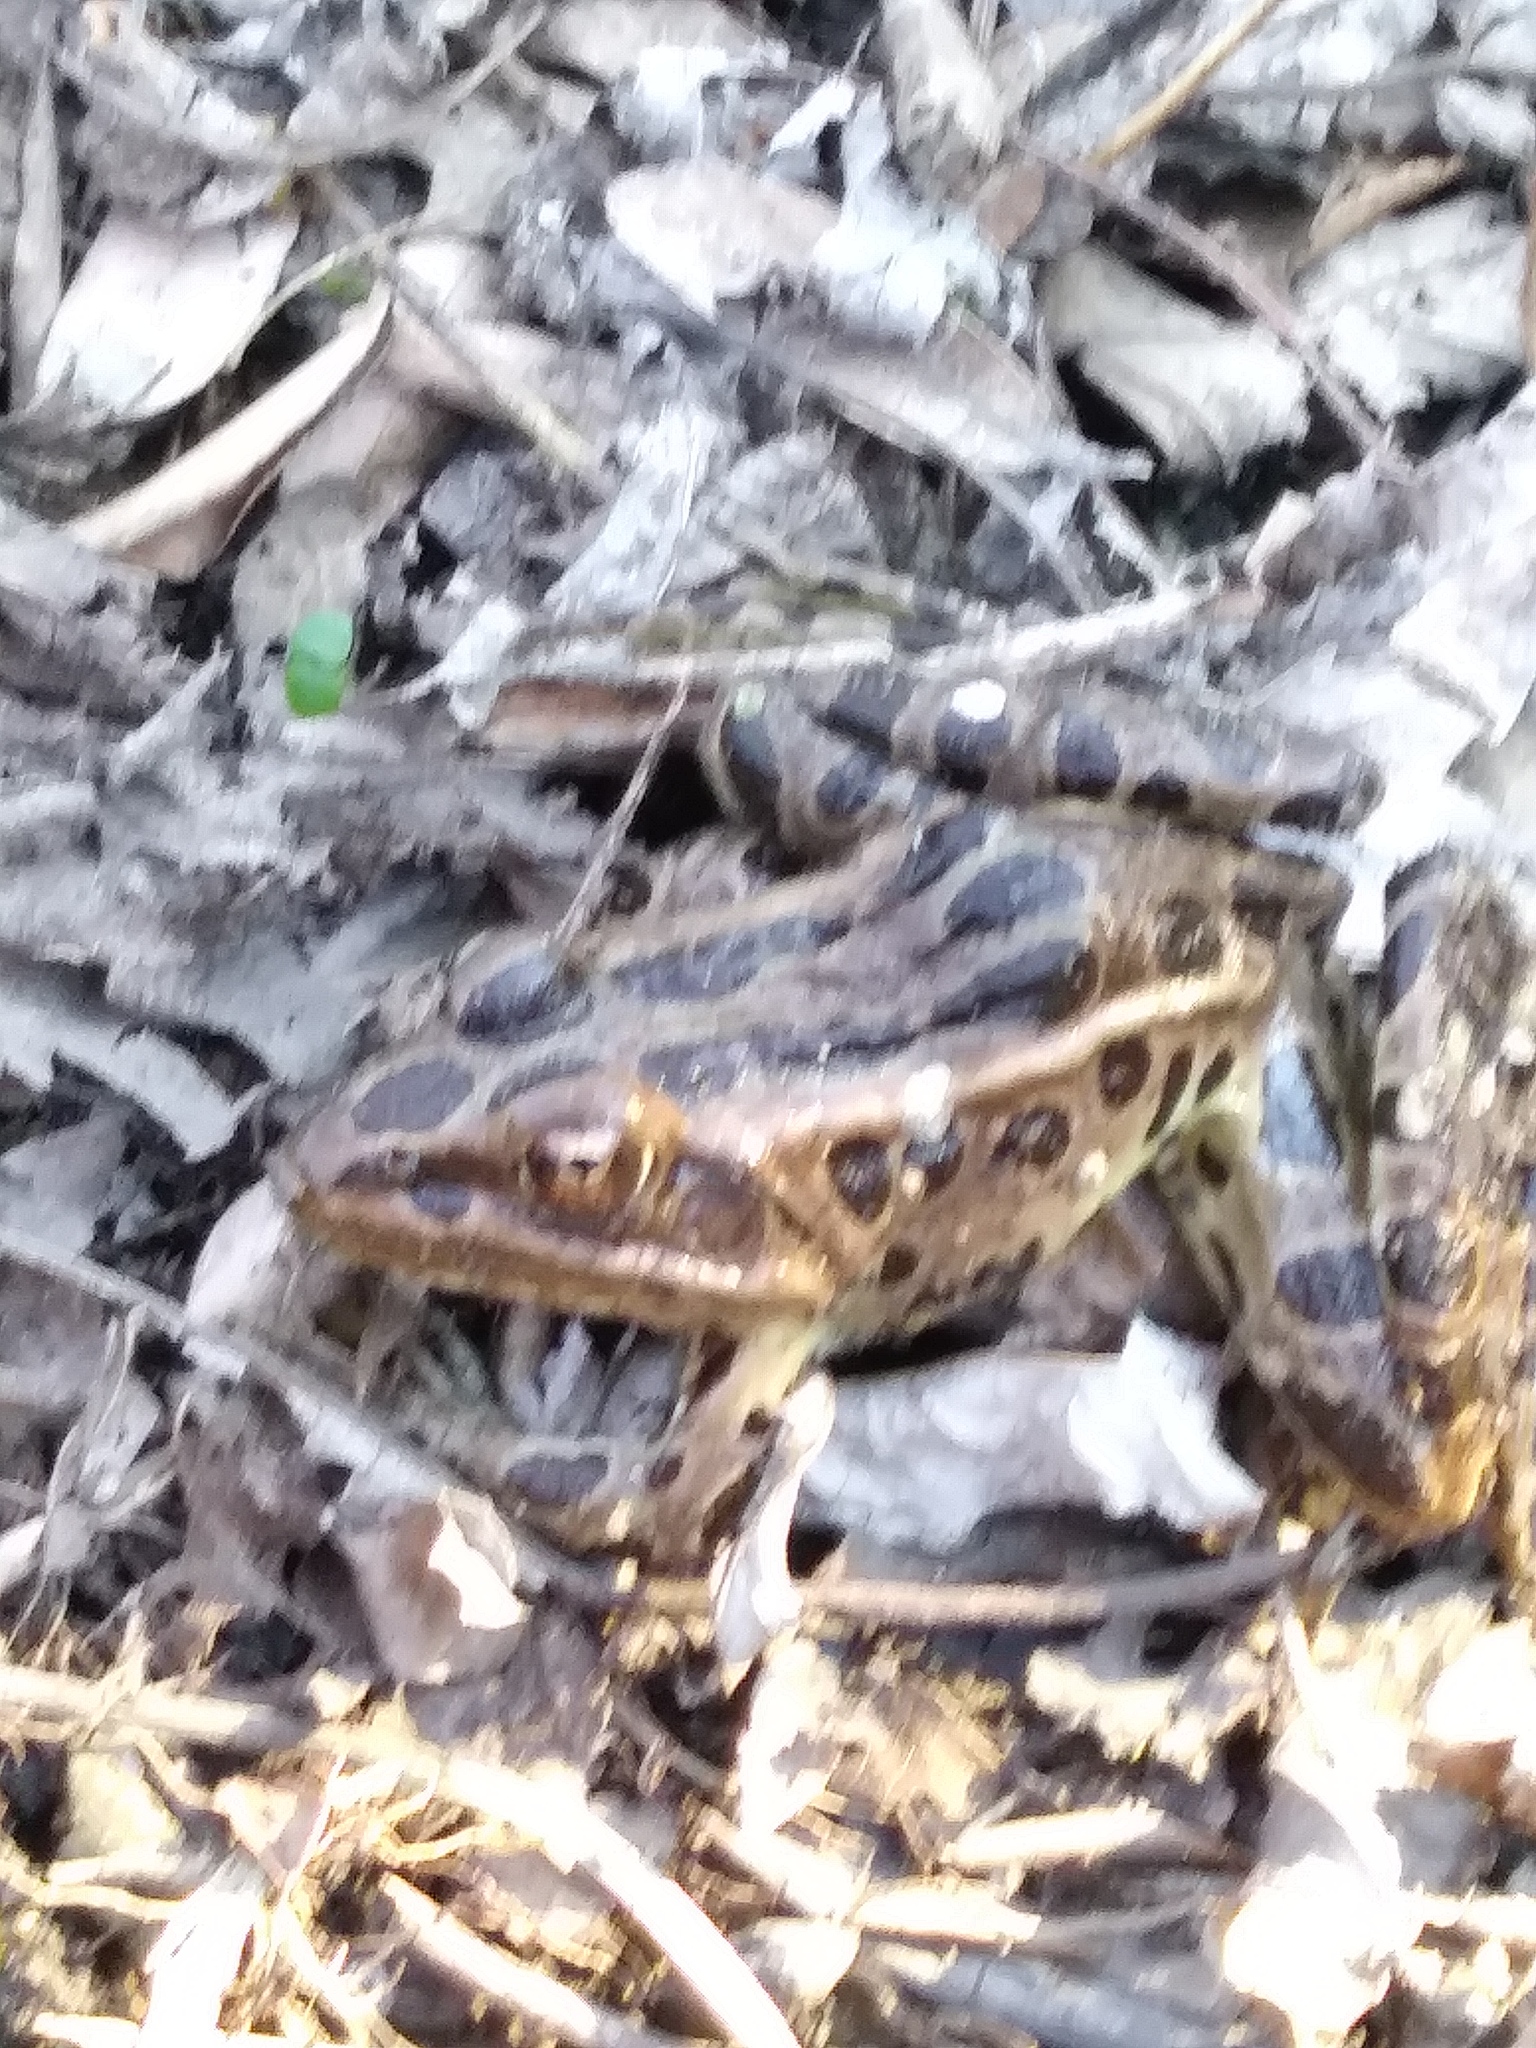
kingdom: Animalia
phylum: Chordata
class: Amphibia
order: Anura
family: Ranidae
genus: Lithobates
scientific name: Lithobates pipiens
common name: Northern leopard frog
